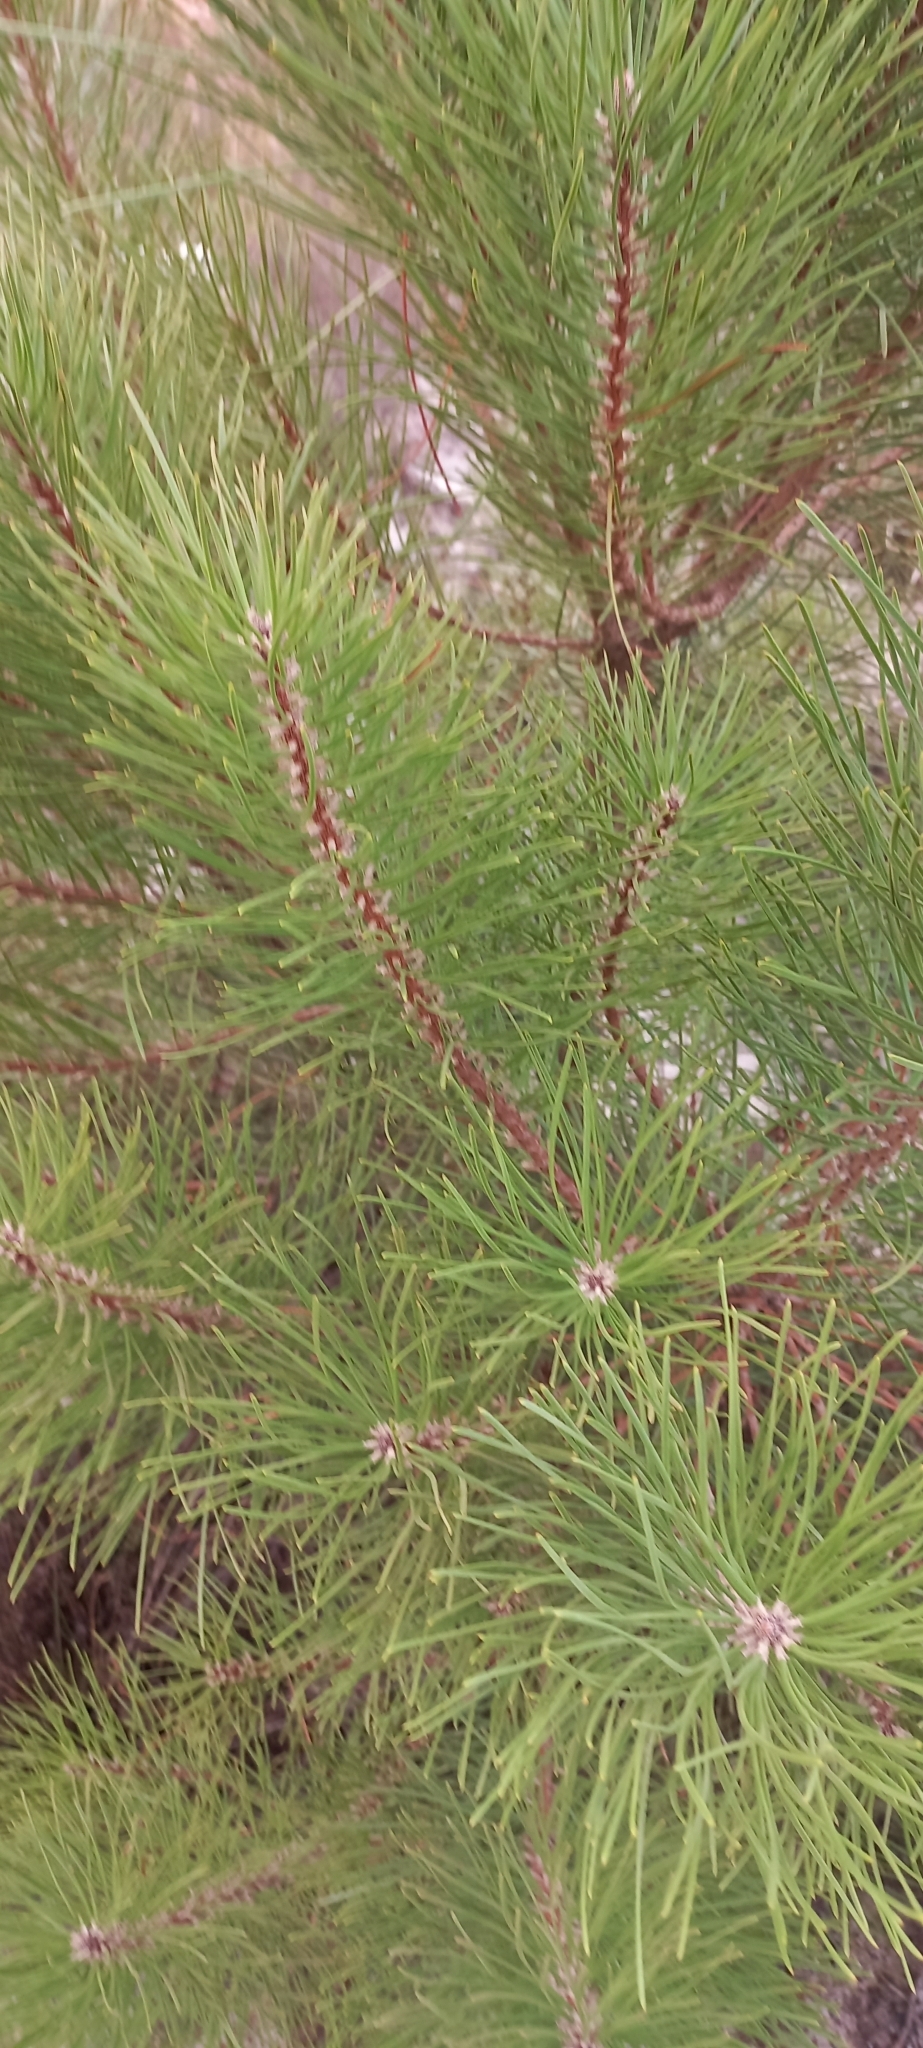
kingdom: Plantae
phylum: Tracheophyta
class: Pinopsida
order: Pinales
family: Pinaceae
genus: Pinus
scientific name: Pinus pinaster
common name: Maritime pine
